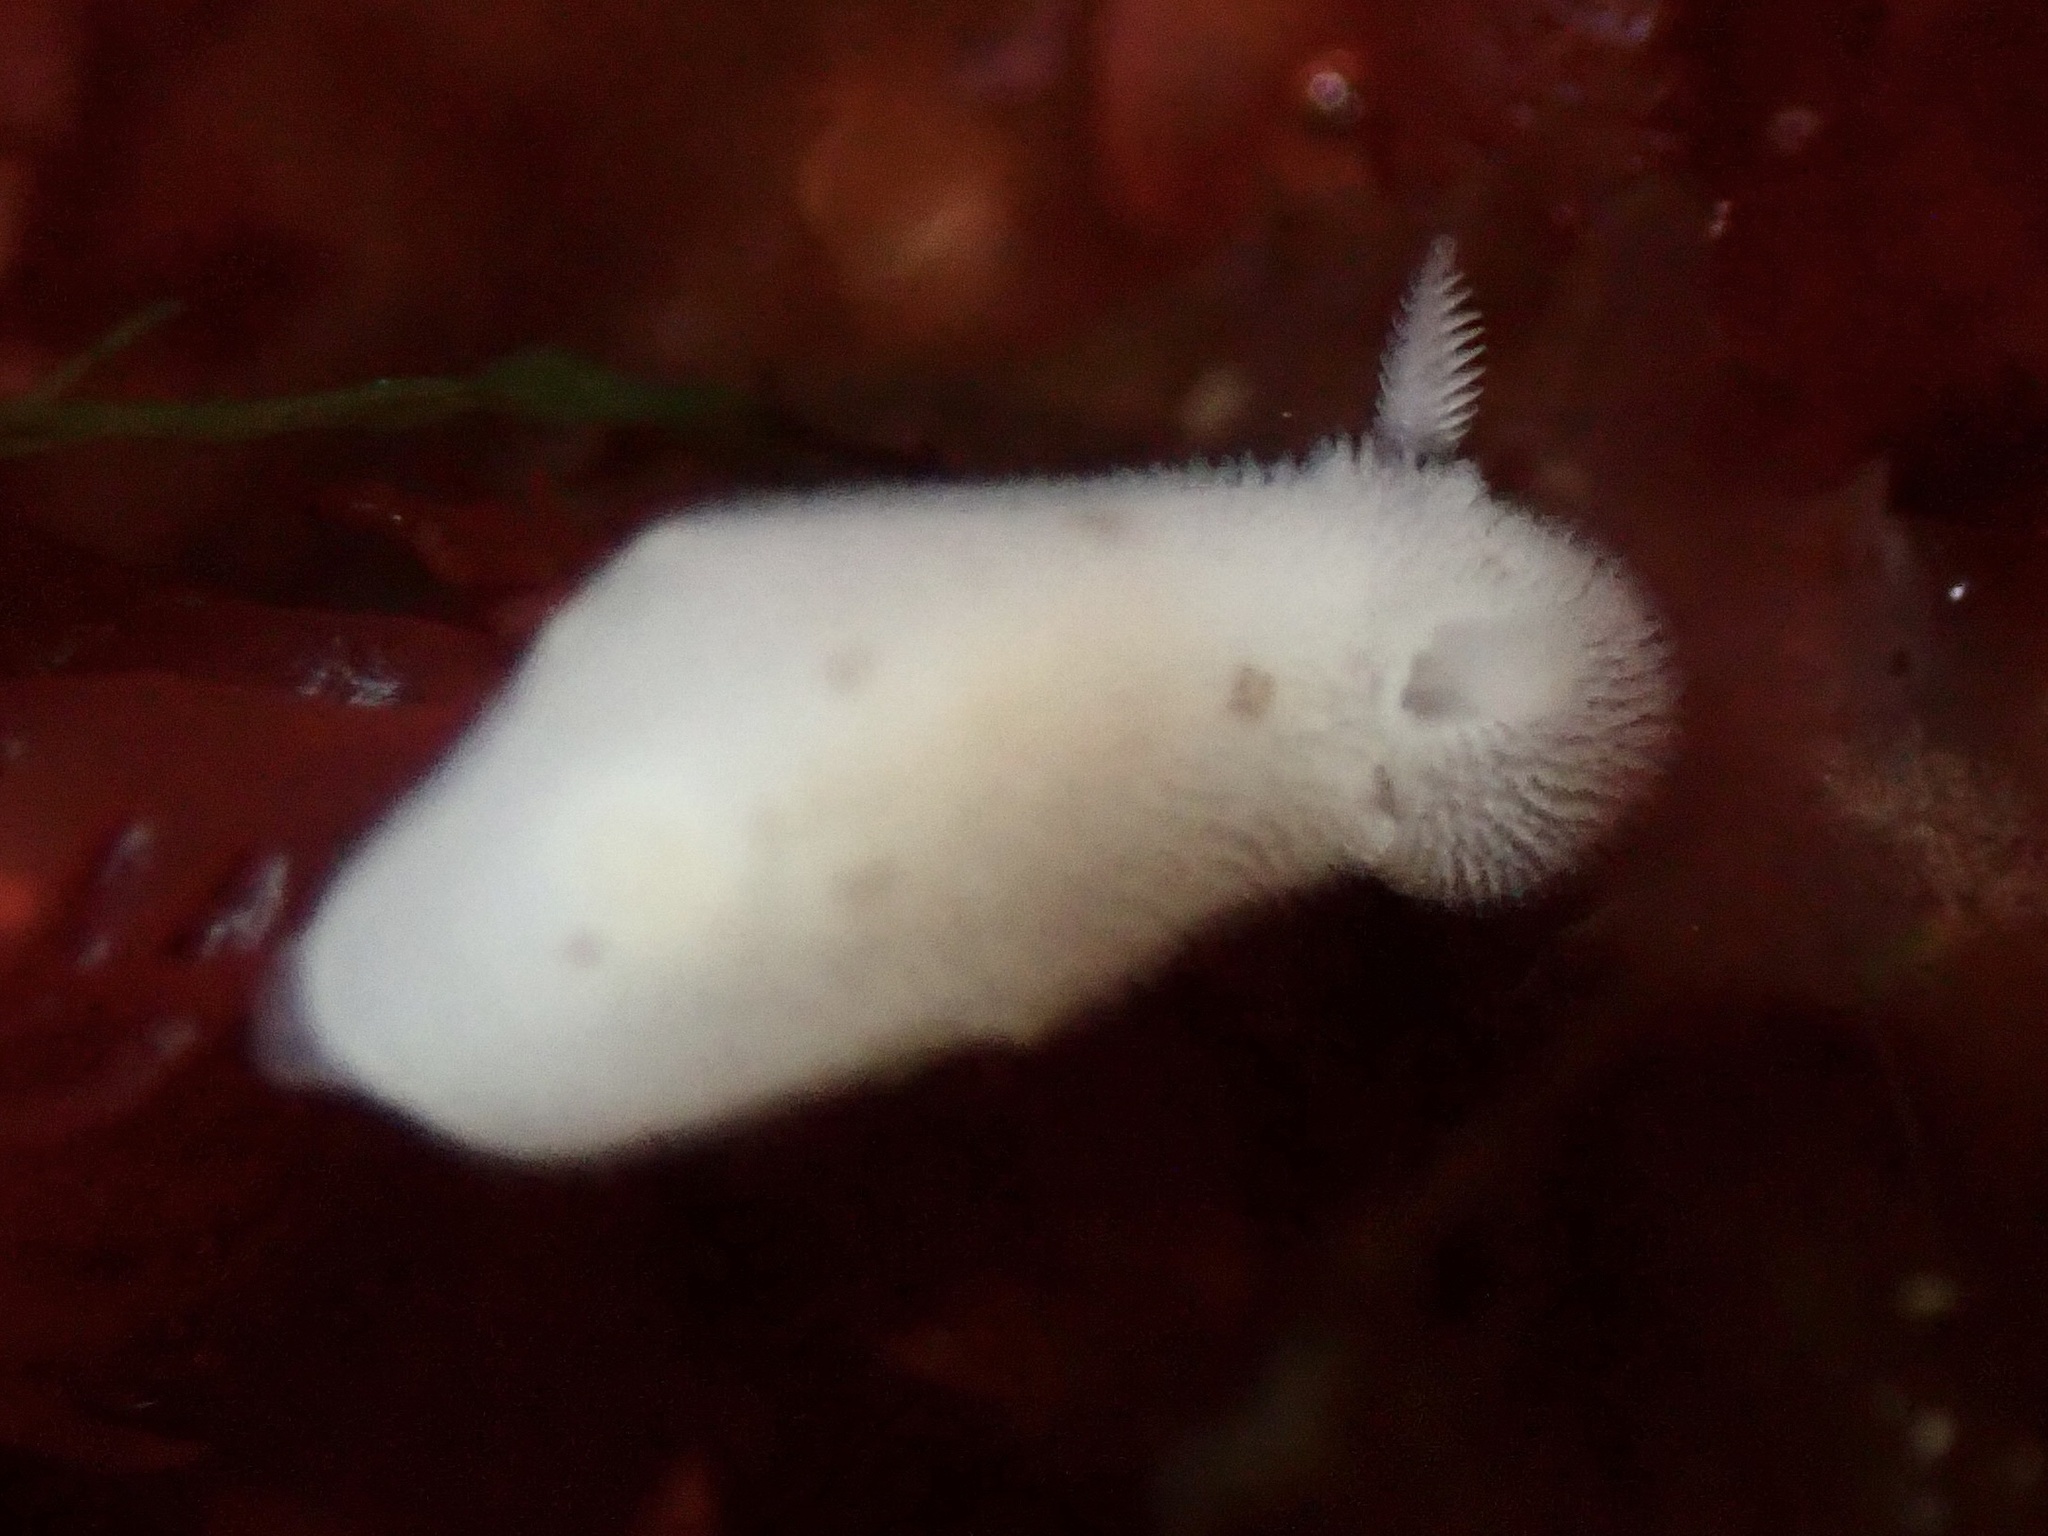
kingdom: Animalia
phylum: Mollusca
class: Gastropoda
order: Nudibranchia
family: Discodorididae
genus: Diaulula
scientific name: Diaulula sandiegensis
